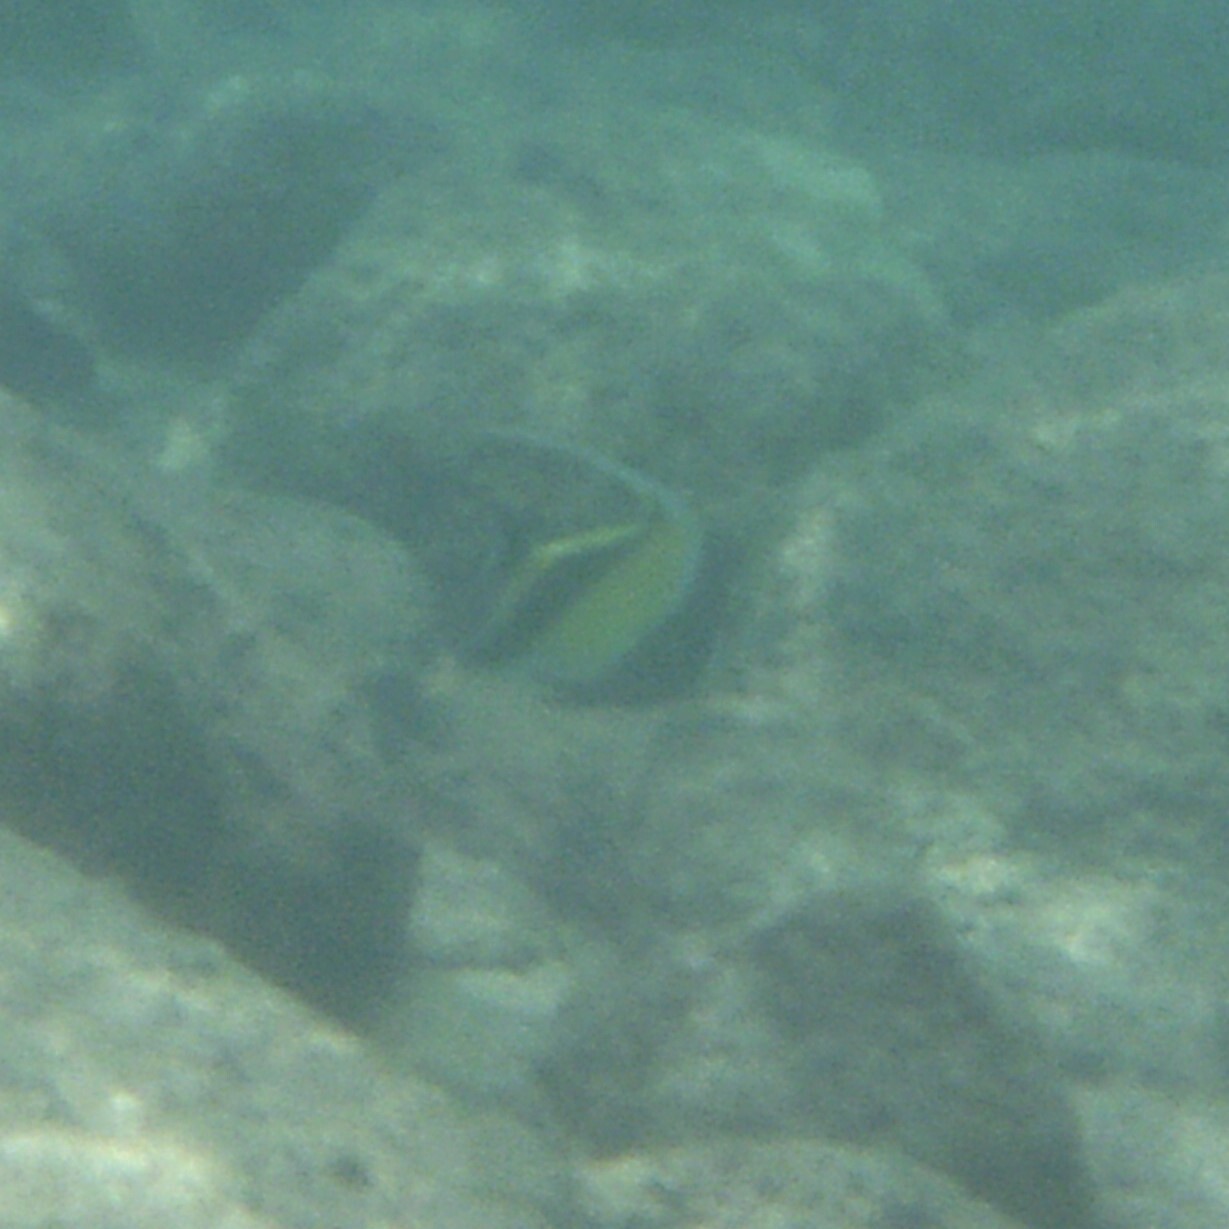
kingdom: Animalia
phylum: Chordata
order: Perciformes
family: Zanclidae
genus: Zanclus
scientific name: Zanclus cornutus
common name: Moorish idol
